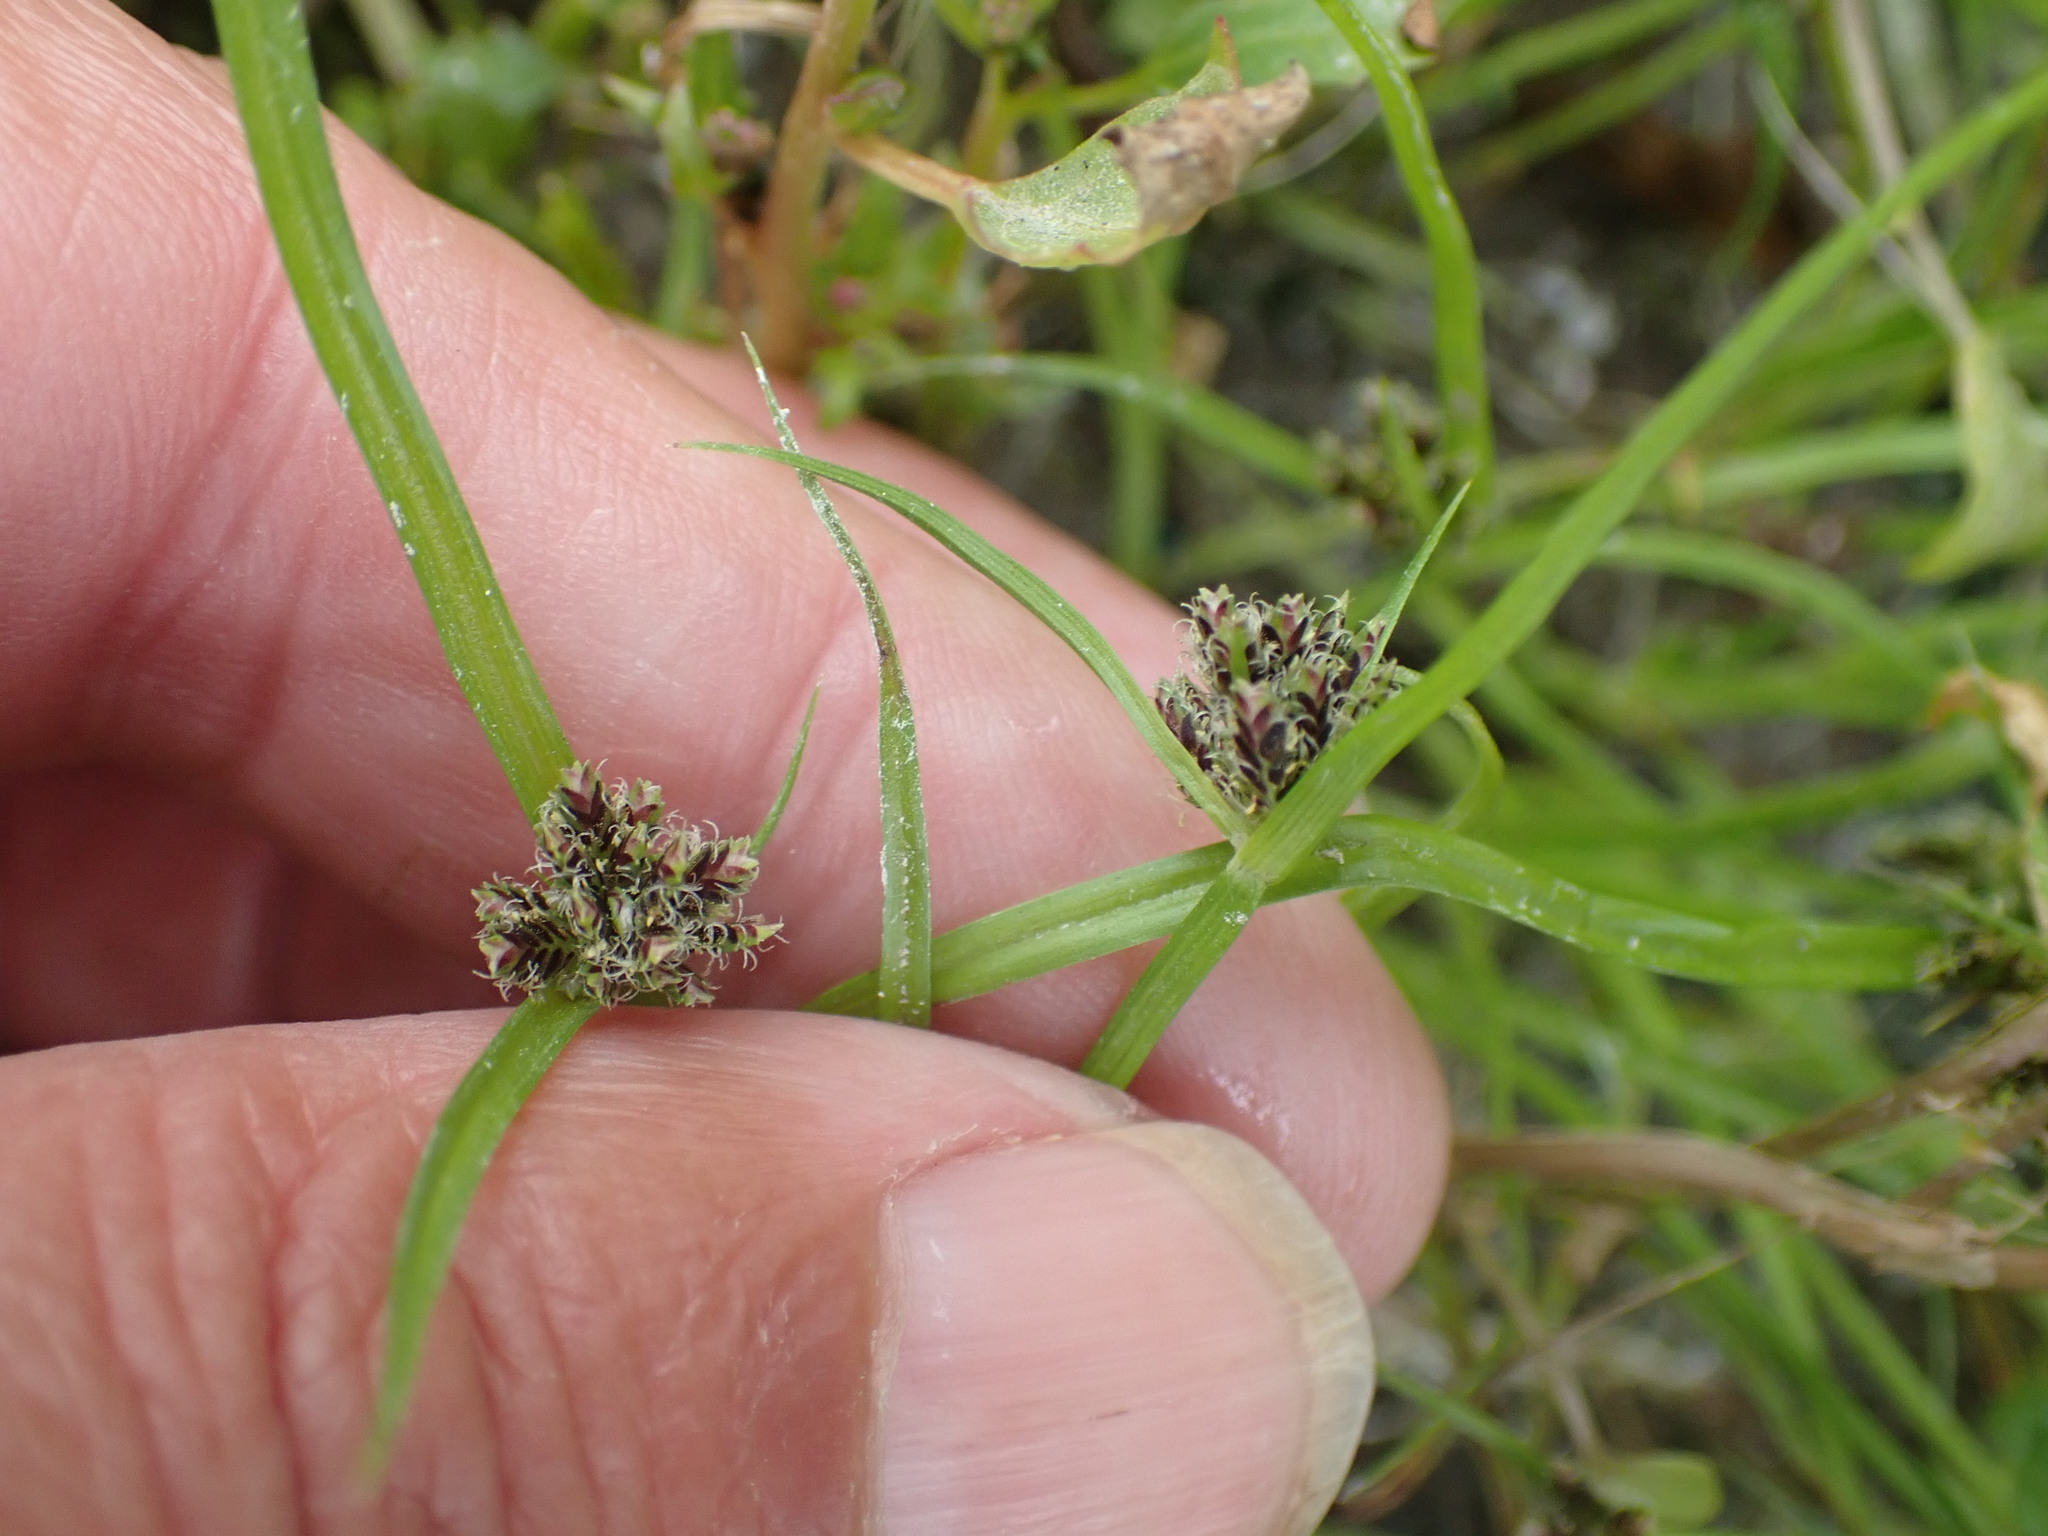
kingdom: Plantae
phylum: Tracheophyta
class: Liliopsida
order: Poales
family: Cyperaceae
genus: Cyperus
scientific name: Cyperus fuscus
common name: Brown galingale
